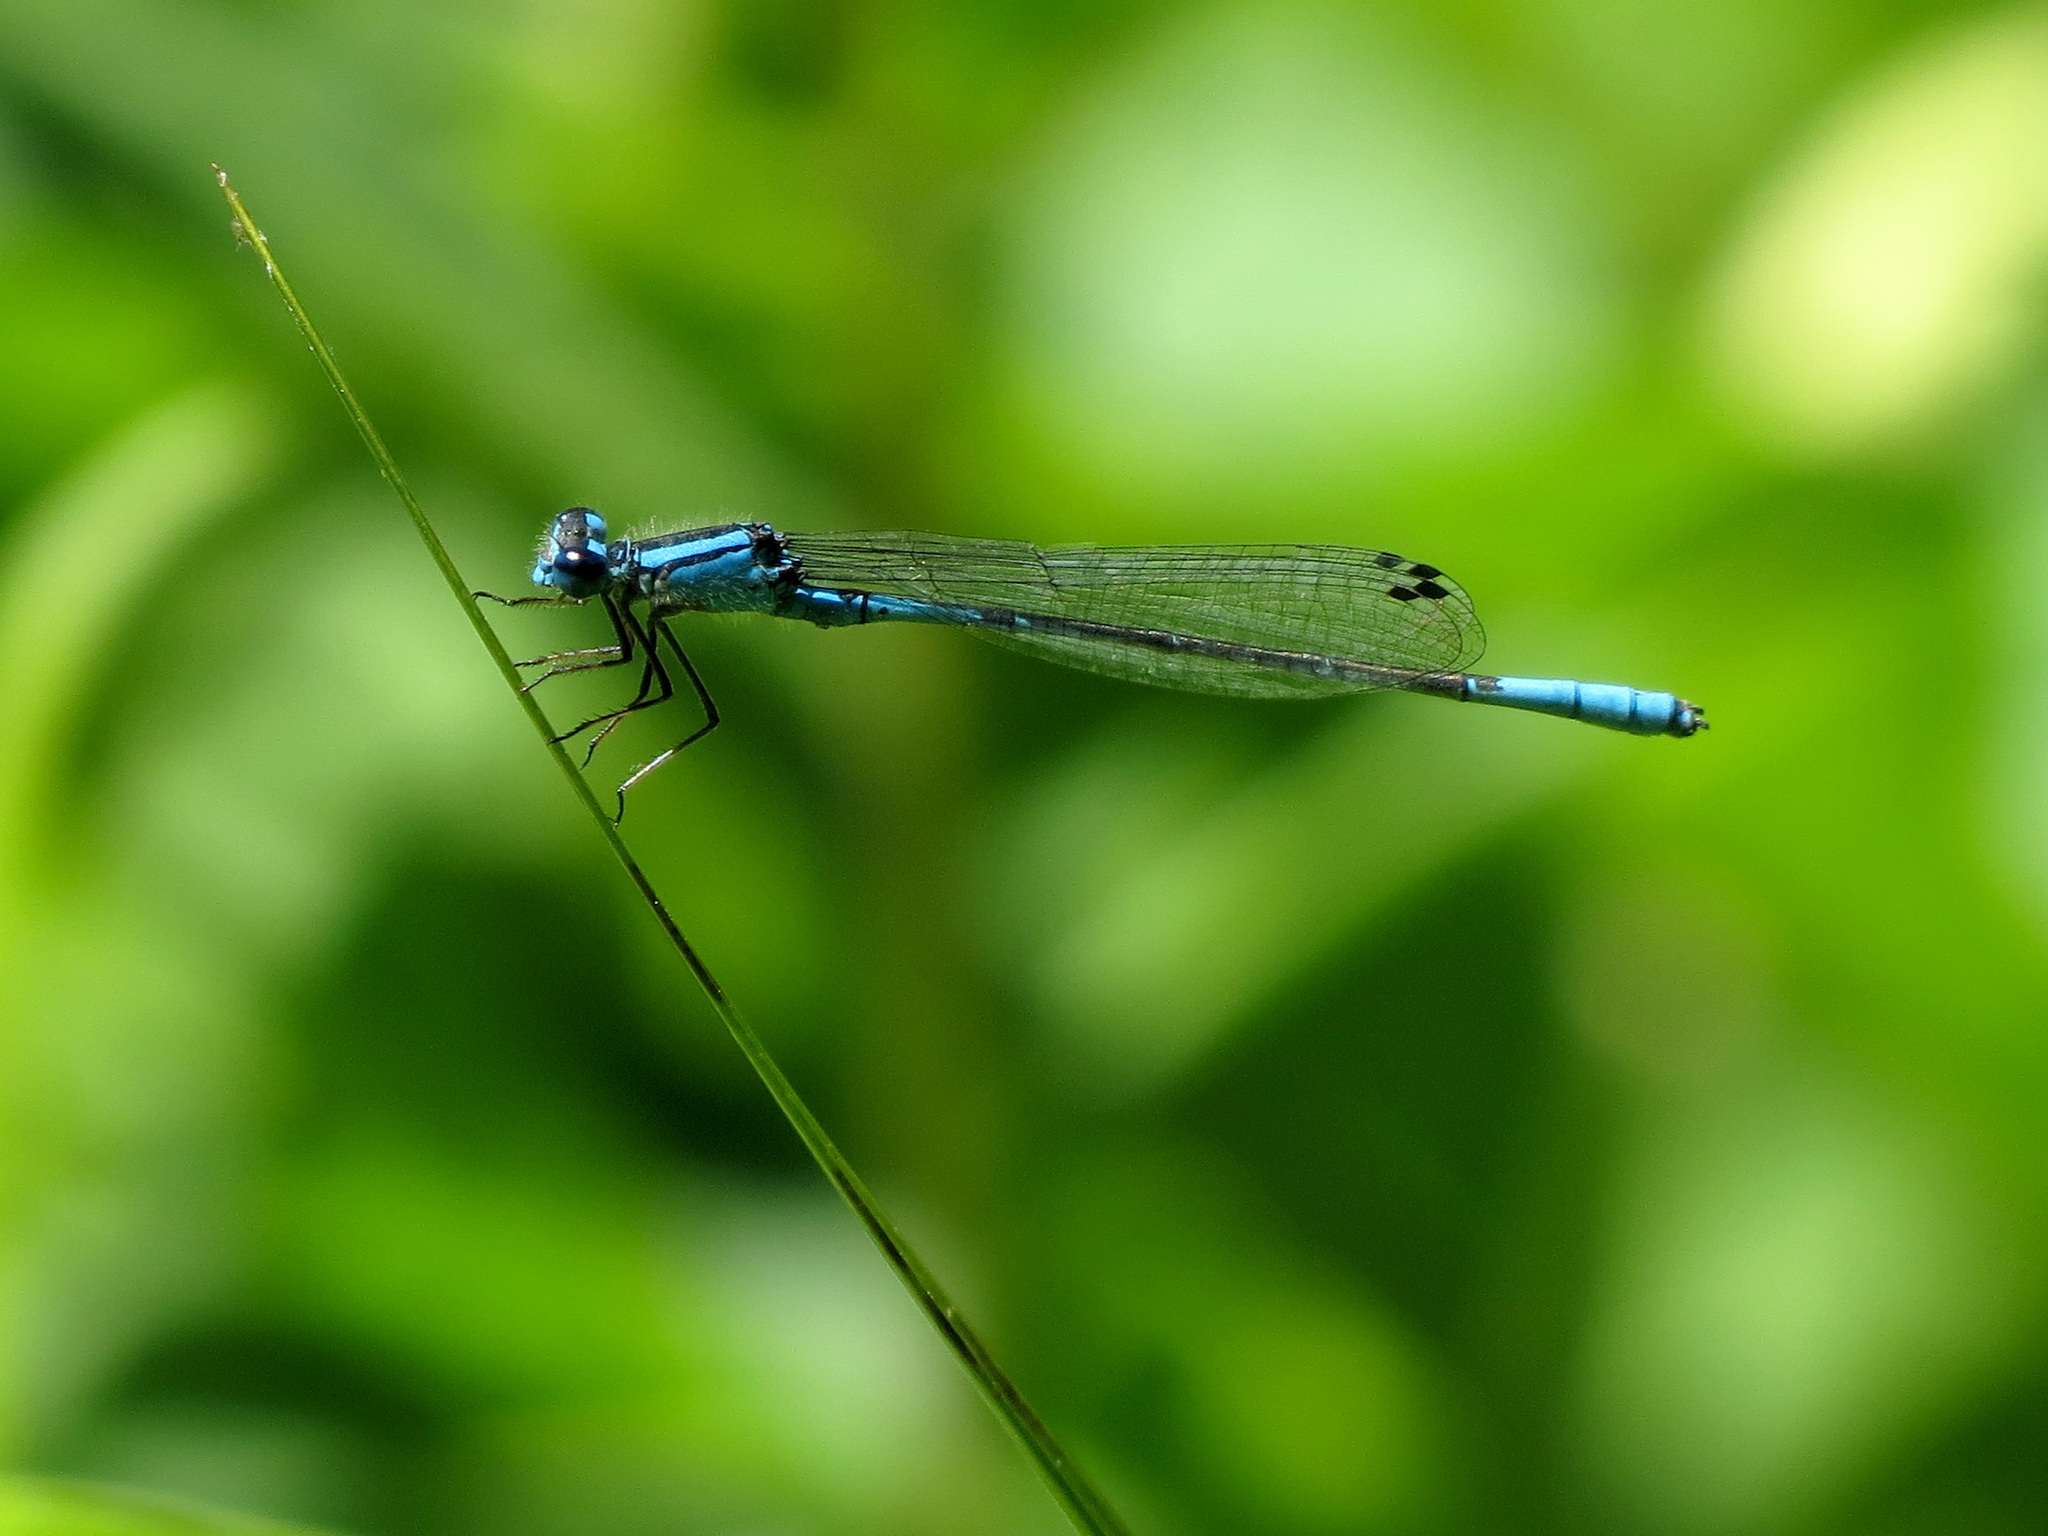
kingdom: Animalia
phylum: Arthropoda
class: Insecta
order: Odonata
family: Coenagrionidae
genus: Enallagma
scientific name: Enallagma aspersum
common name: Azure bluet
